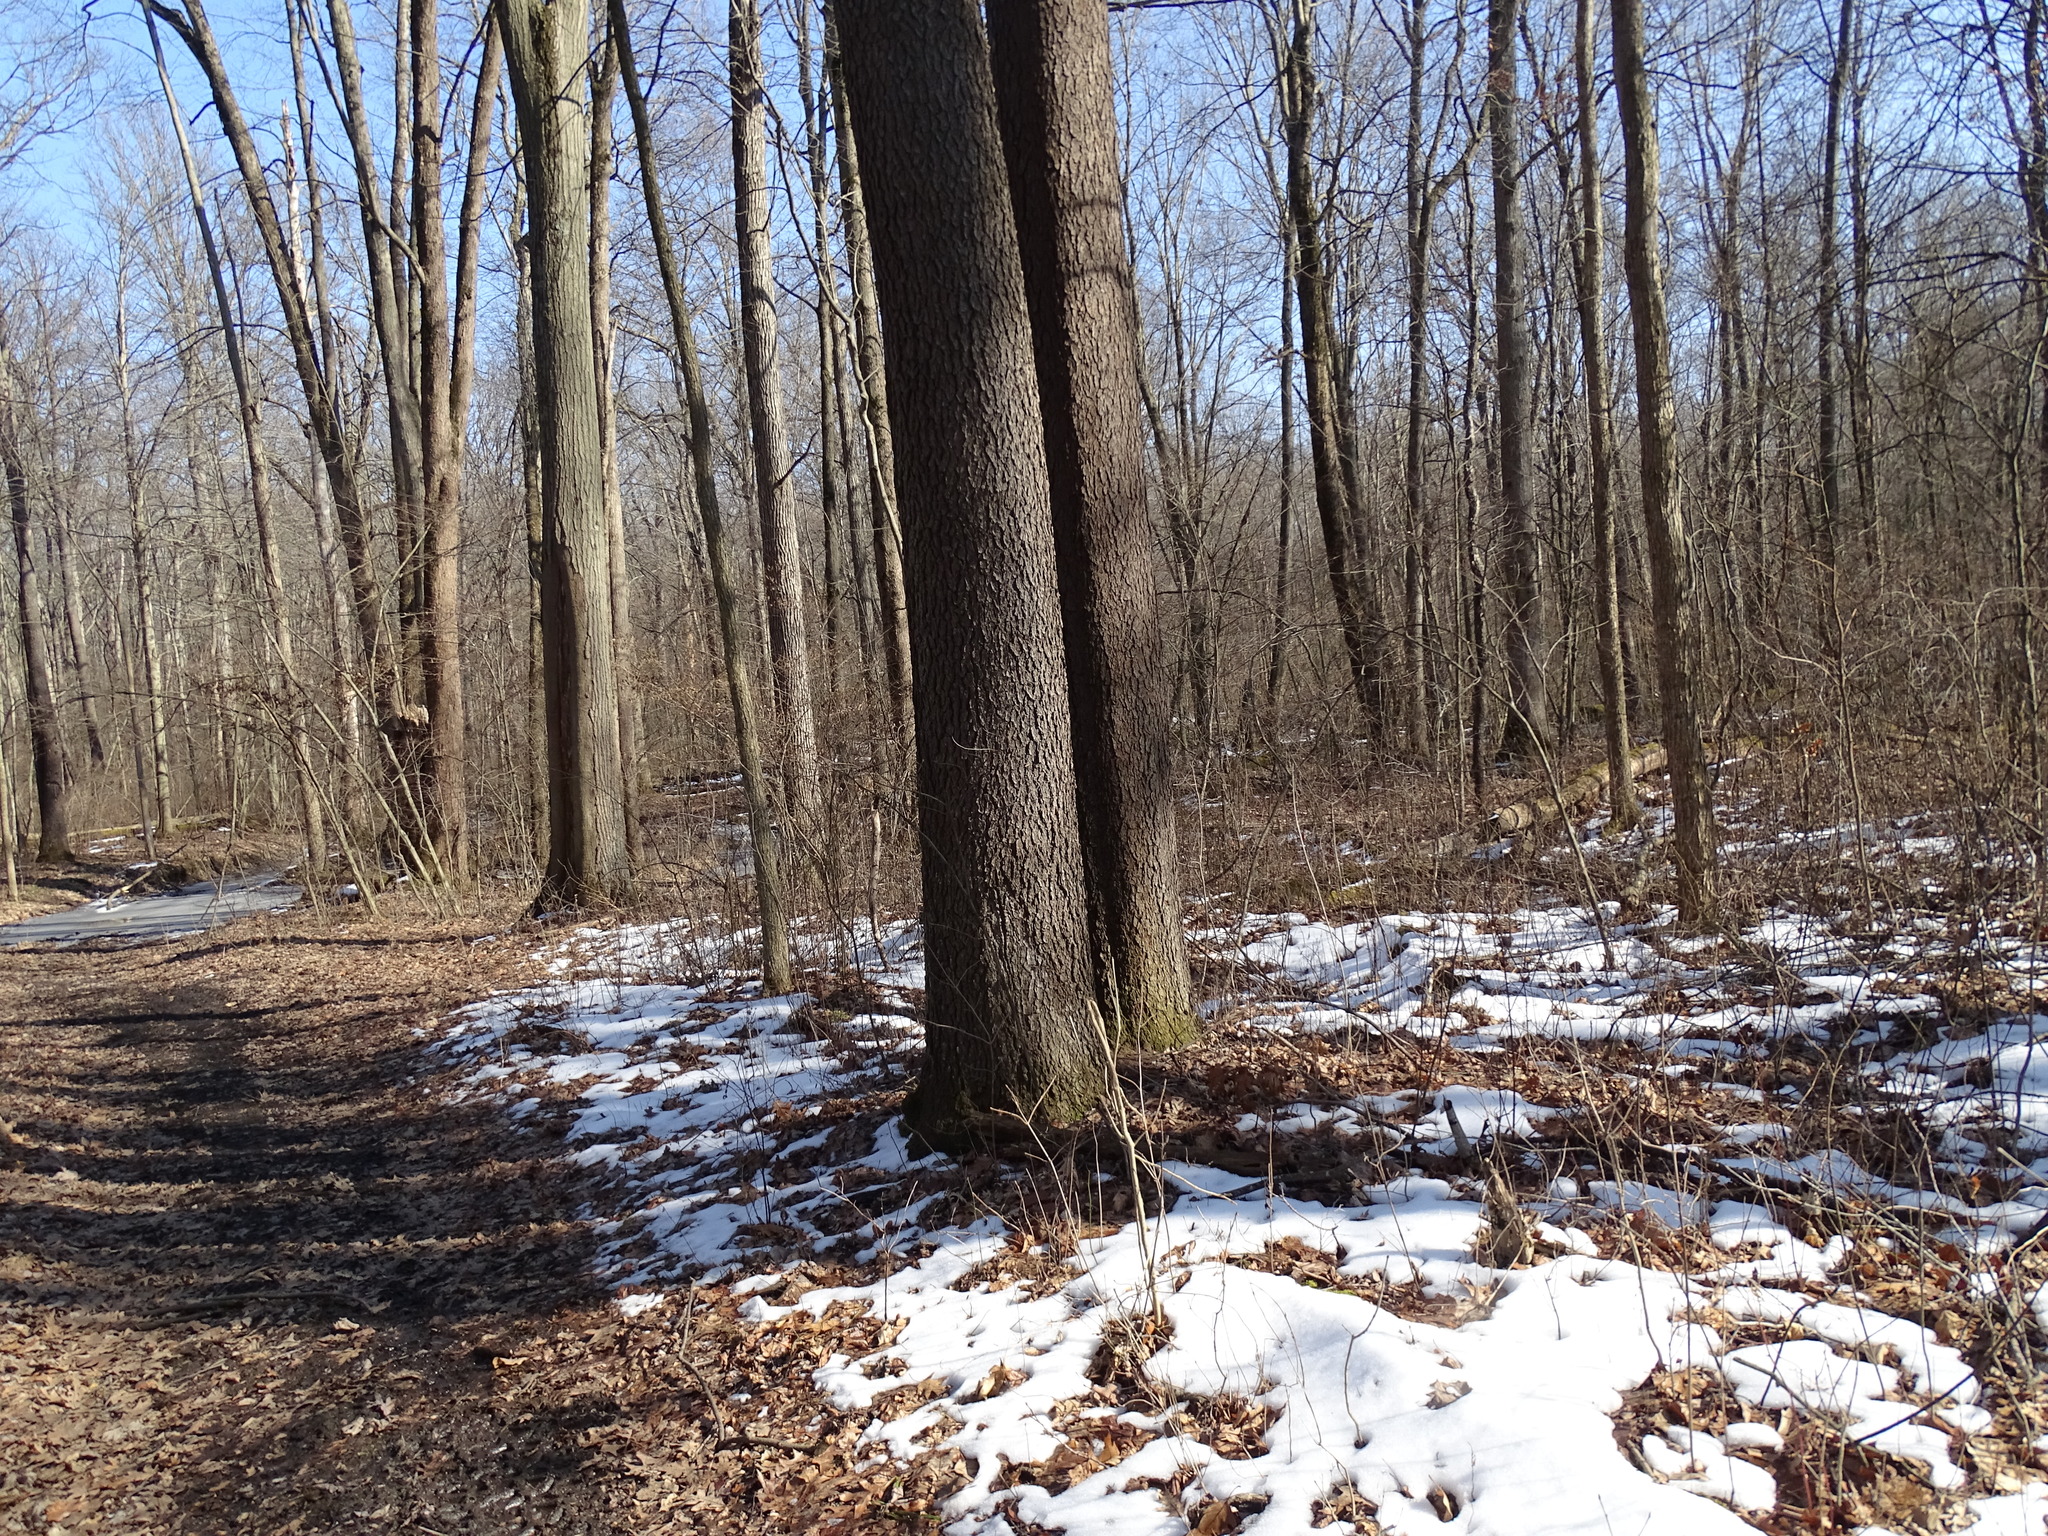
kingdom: Plantae
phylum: Tracheophyta
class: Magnoliopsida
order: Rosales
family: Rosaceae
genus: Prunus
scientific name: Prunus serotina
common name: Black cherry
